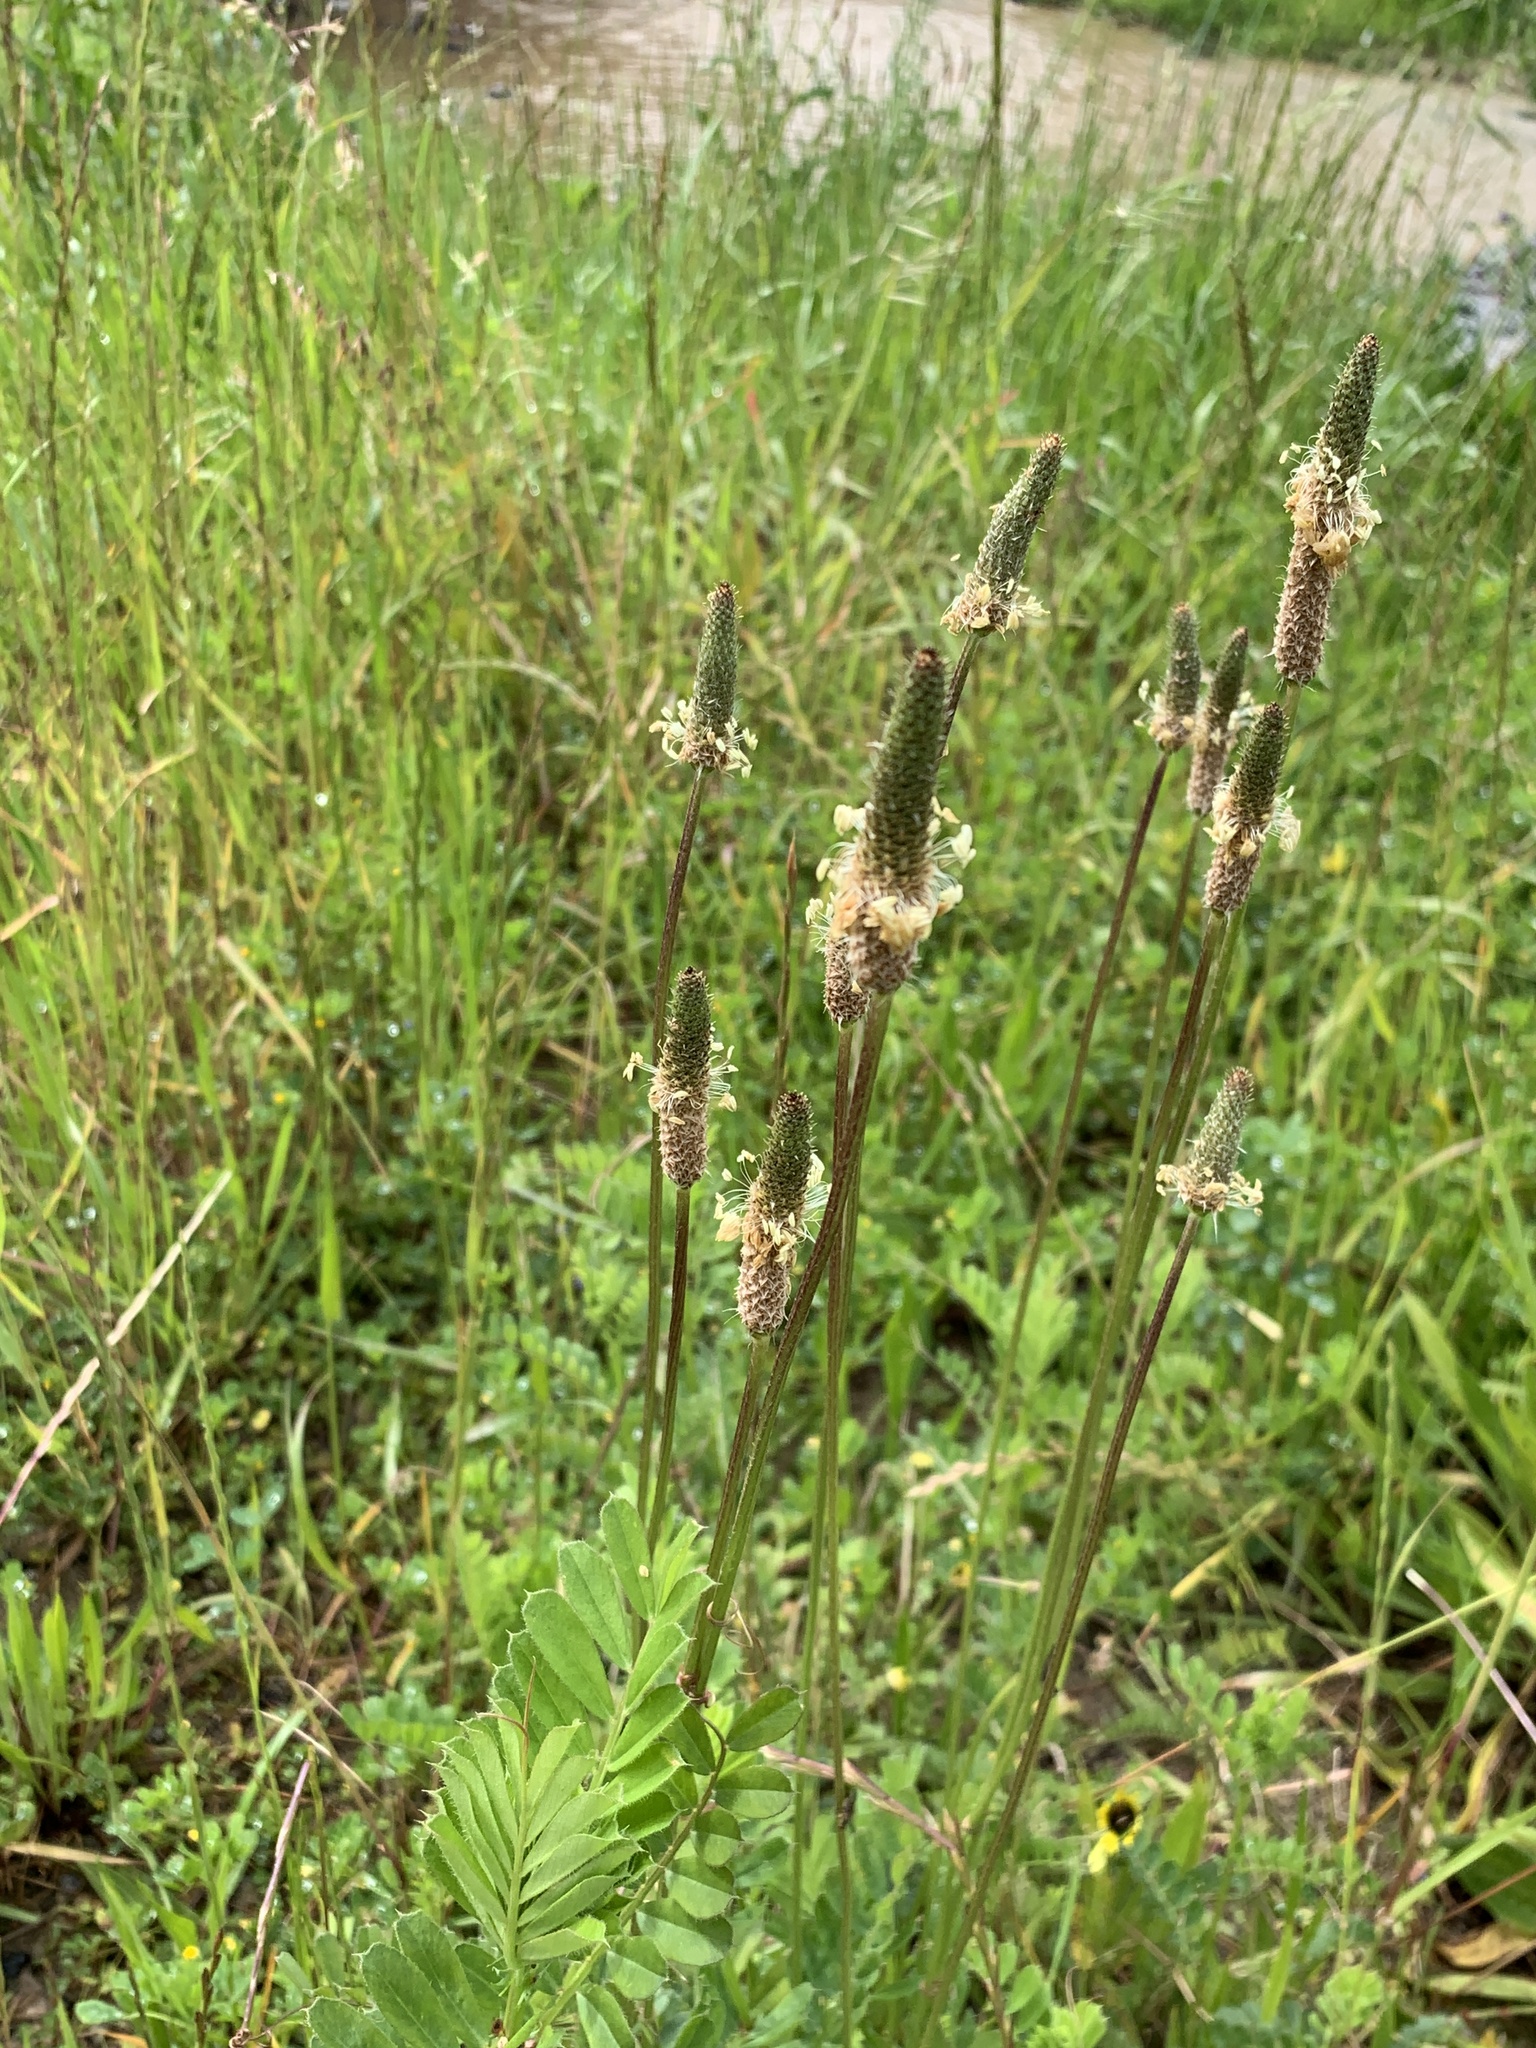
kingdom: Plantae
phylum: Tracheophyta
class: Magnoliopsida
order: Lamiales
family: Plantaginaceae
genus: Plantago
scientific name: Plantago lanceolata
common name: Ribwort plantain
